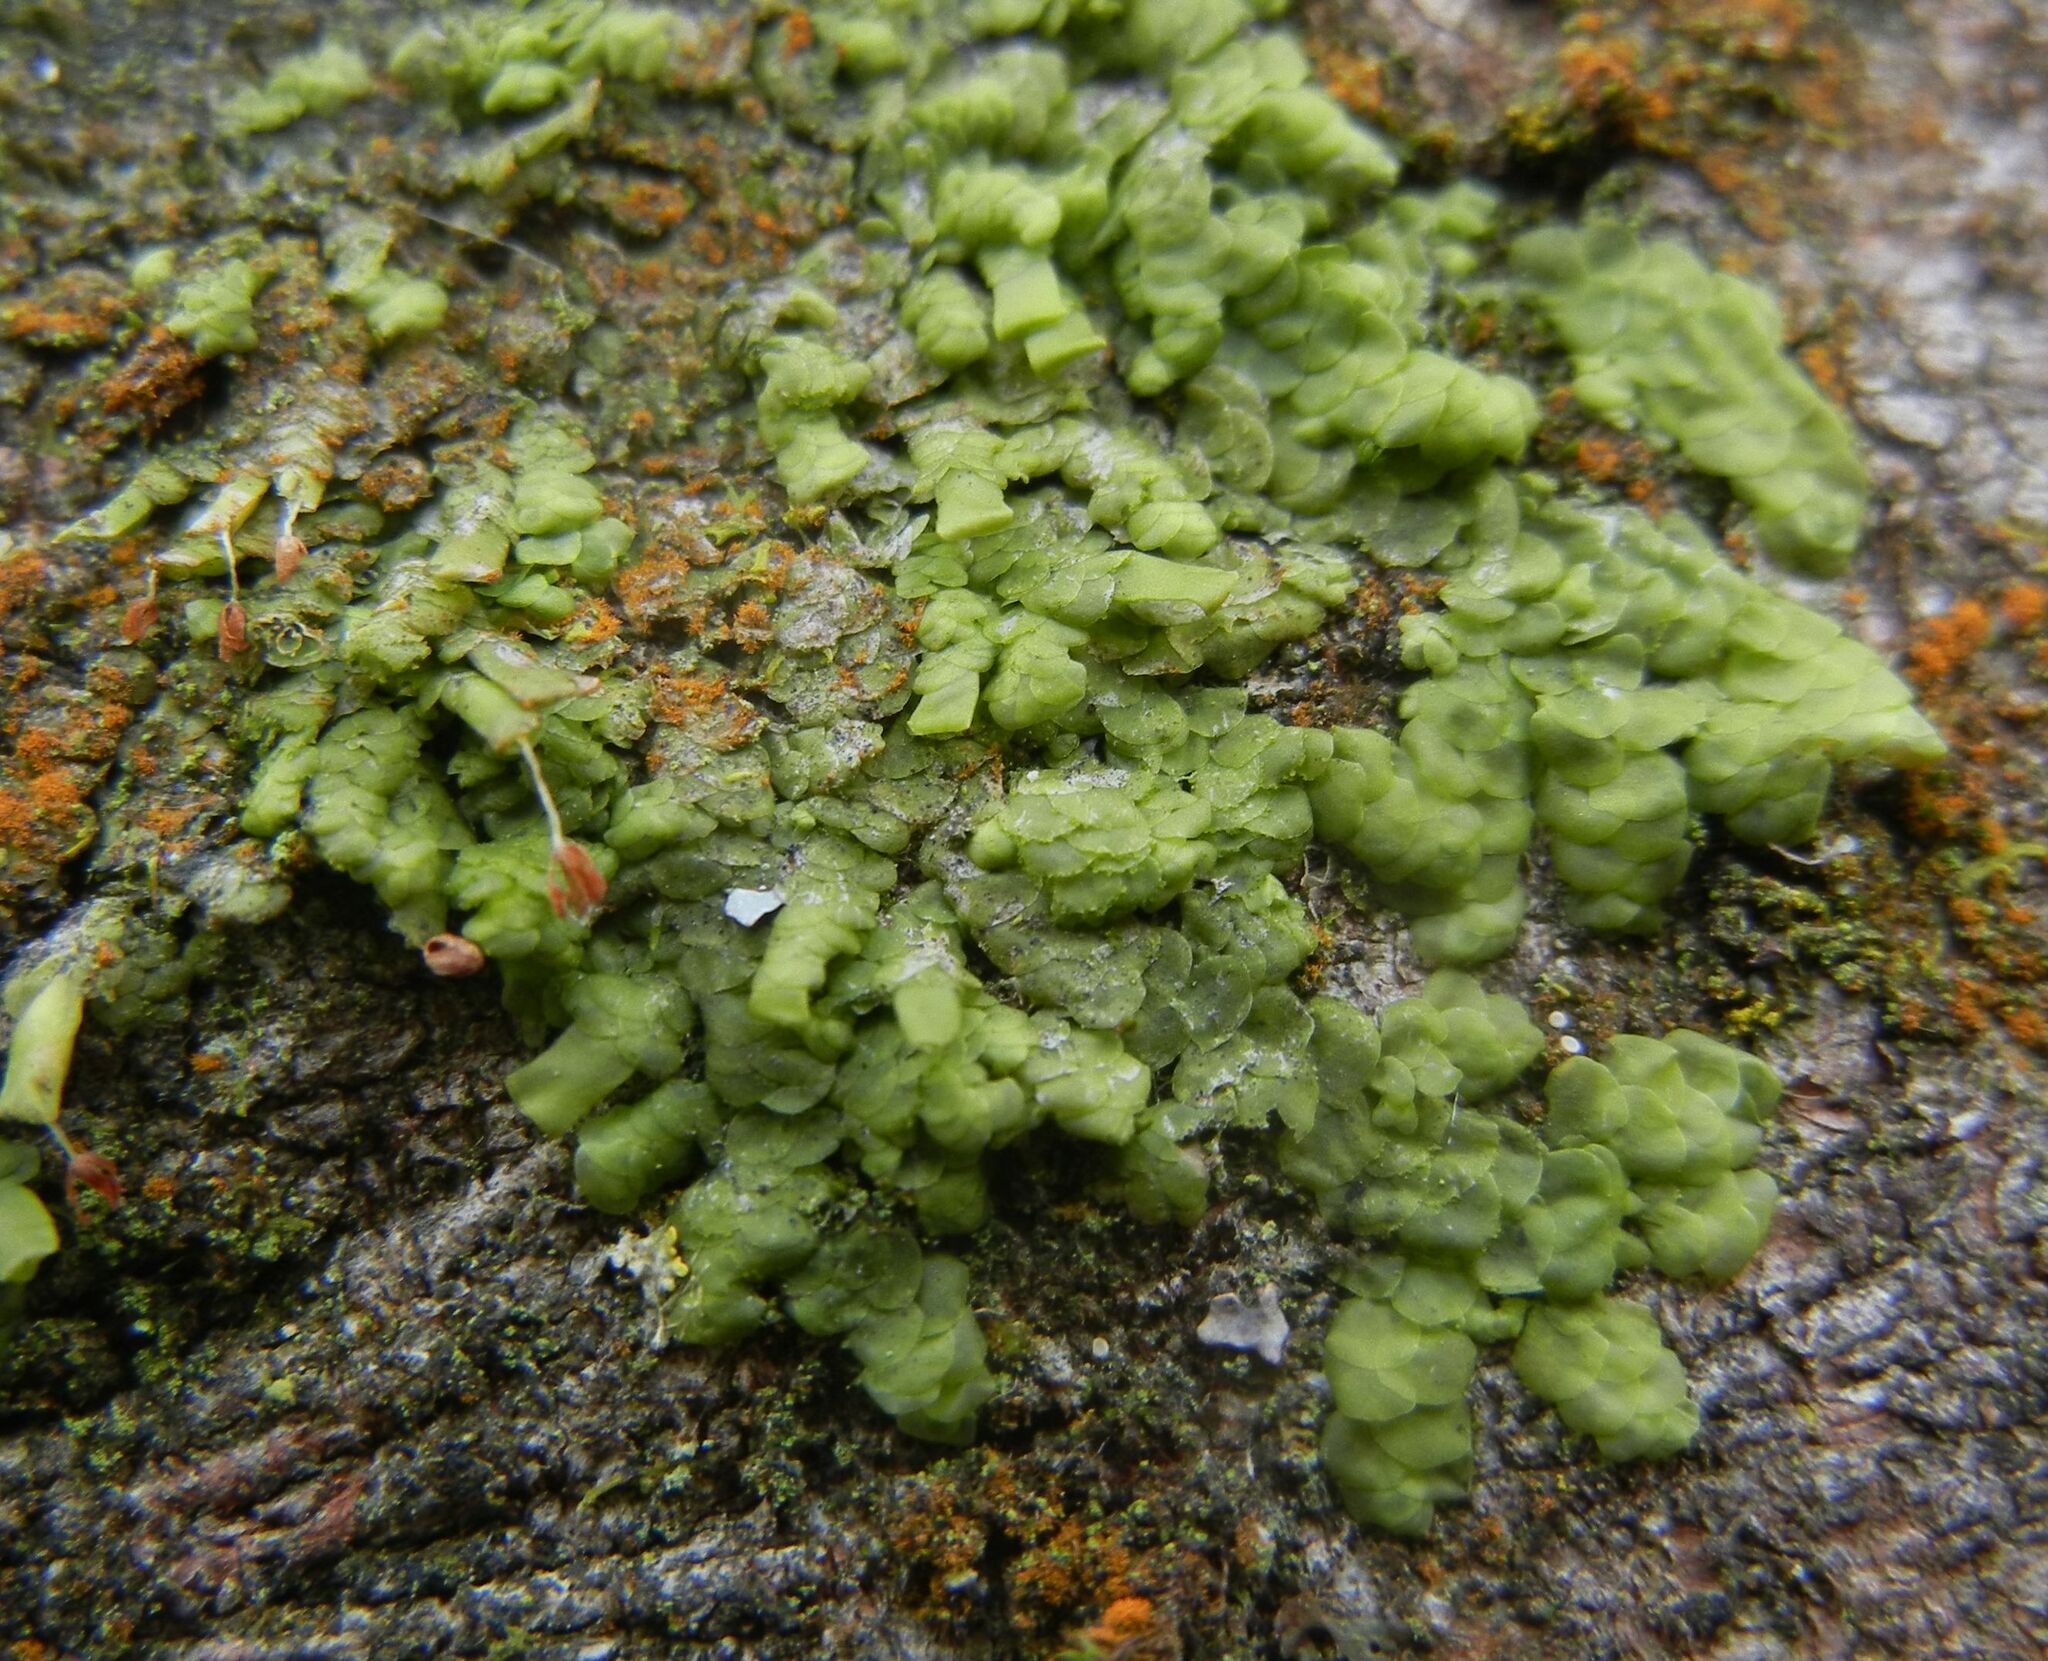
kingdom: Plantae
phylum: Marchantiophyta
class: Jungermanniopsida
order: Porellales
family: Radulaceae
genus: Radula
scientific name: Radula complanata
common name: Flat-leaved scalewort
